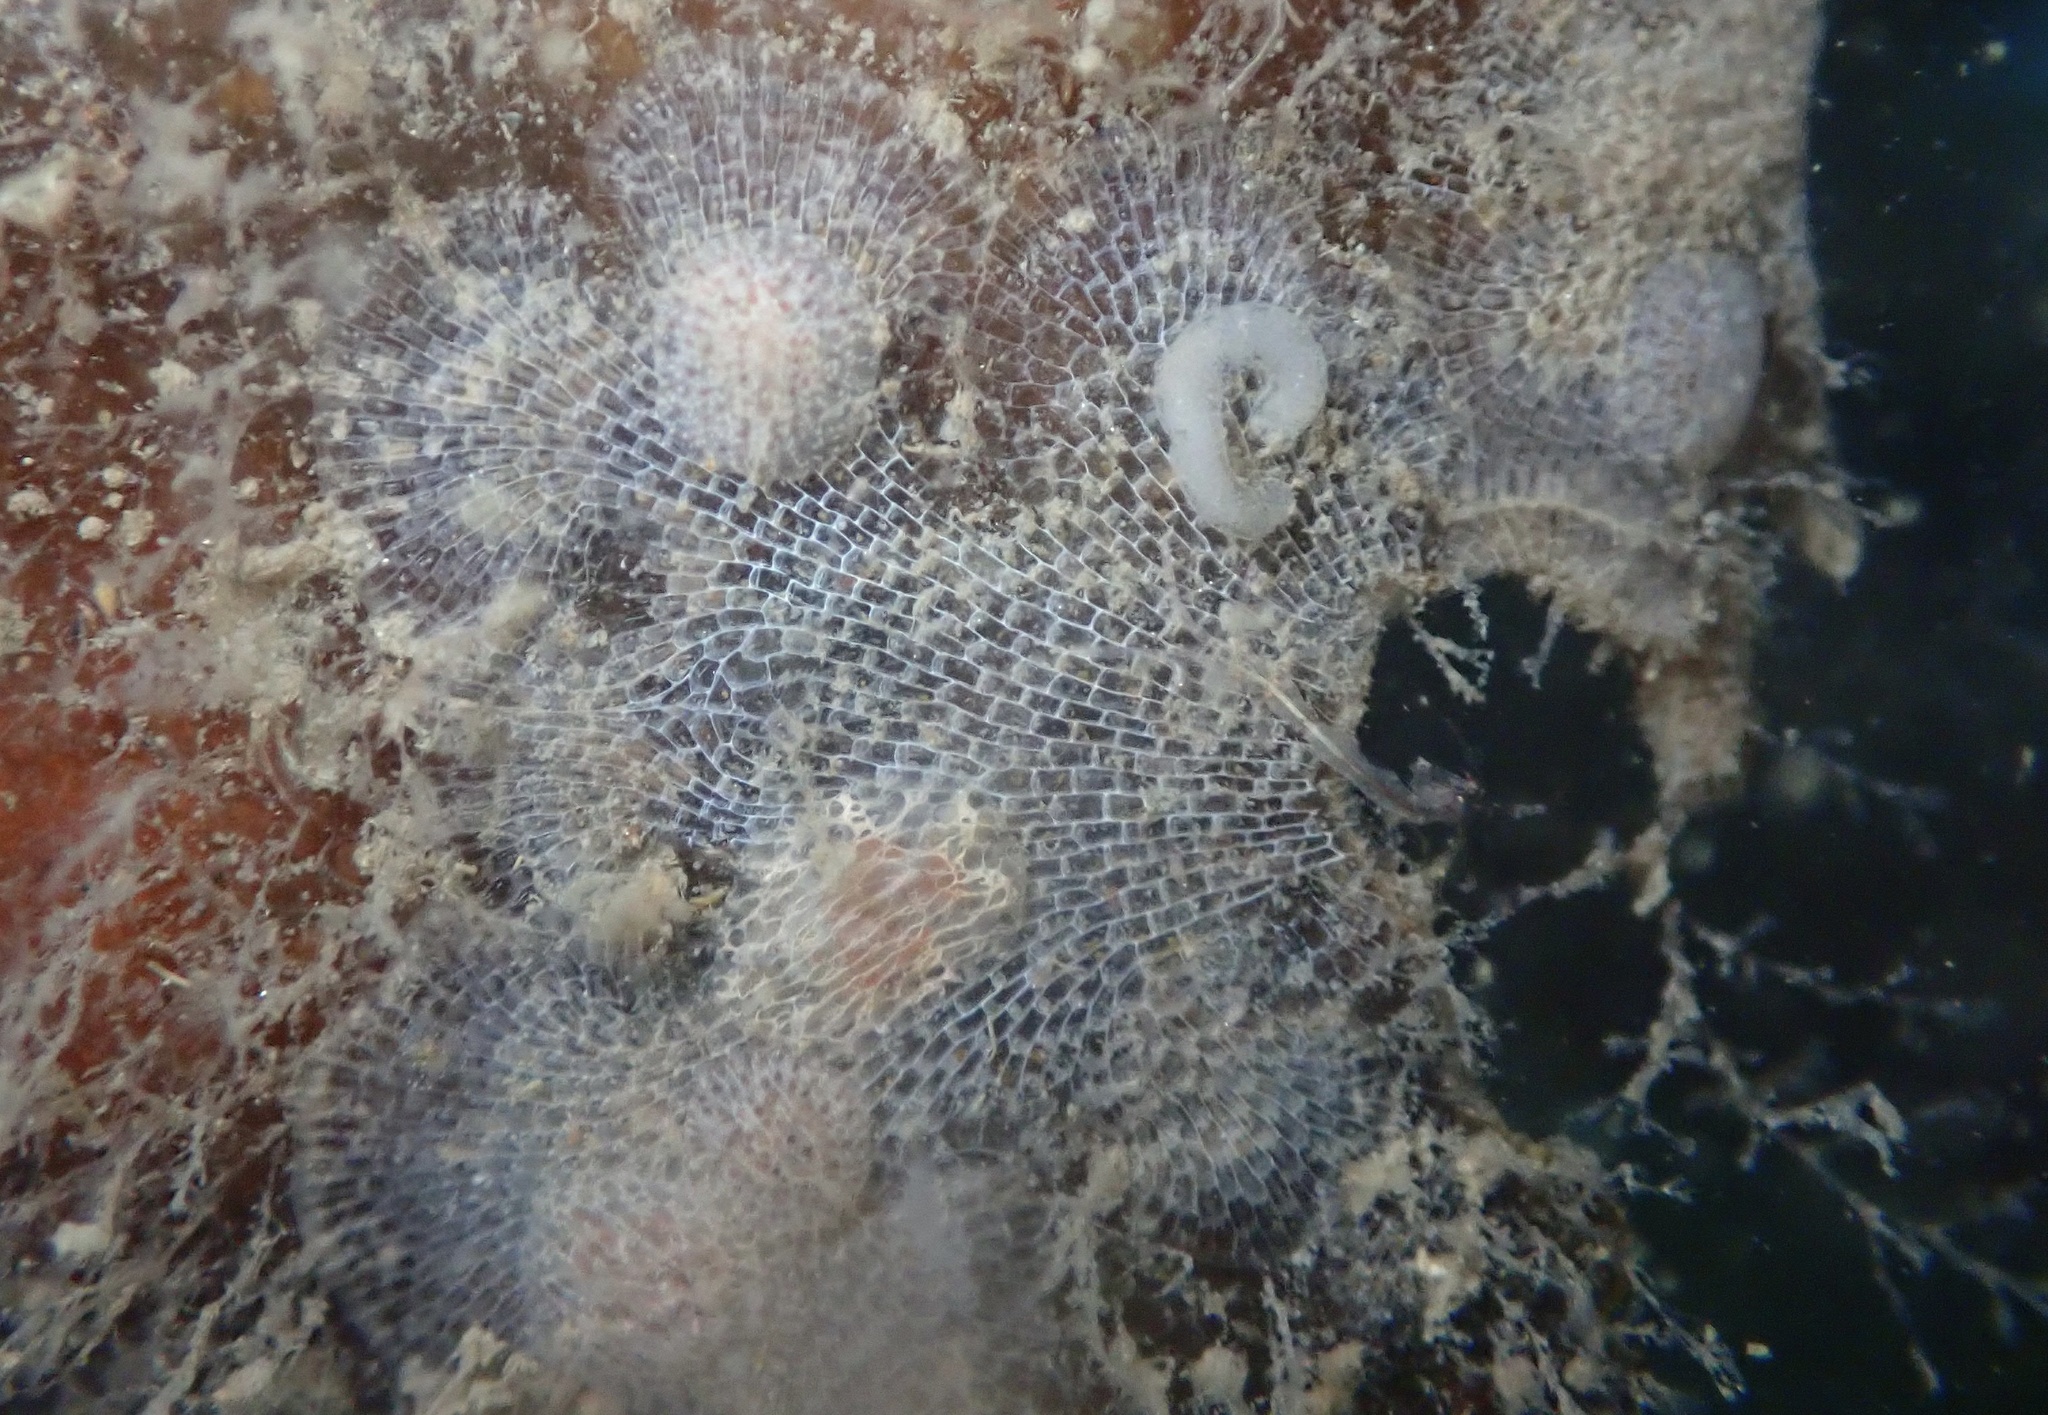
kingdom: Animalia
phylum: Mollusca
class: Gastropoda
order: Nudibranchia
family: Corambidae
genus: Corambe
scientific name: Corambe pacifica
